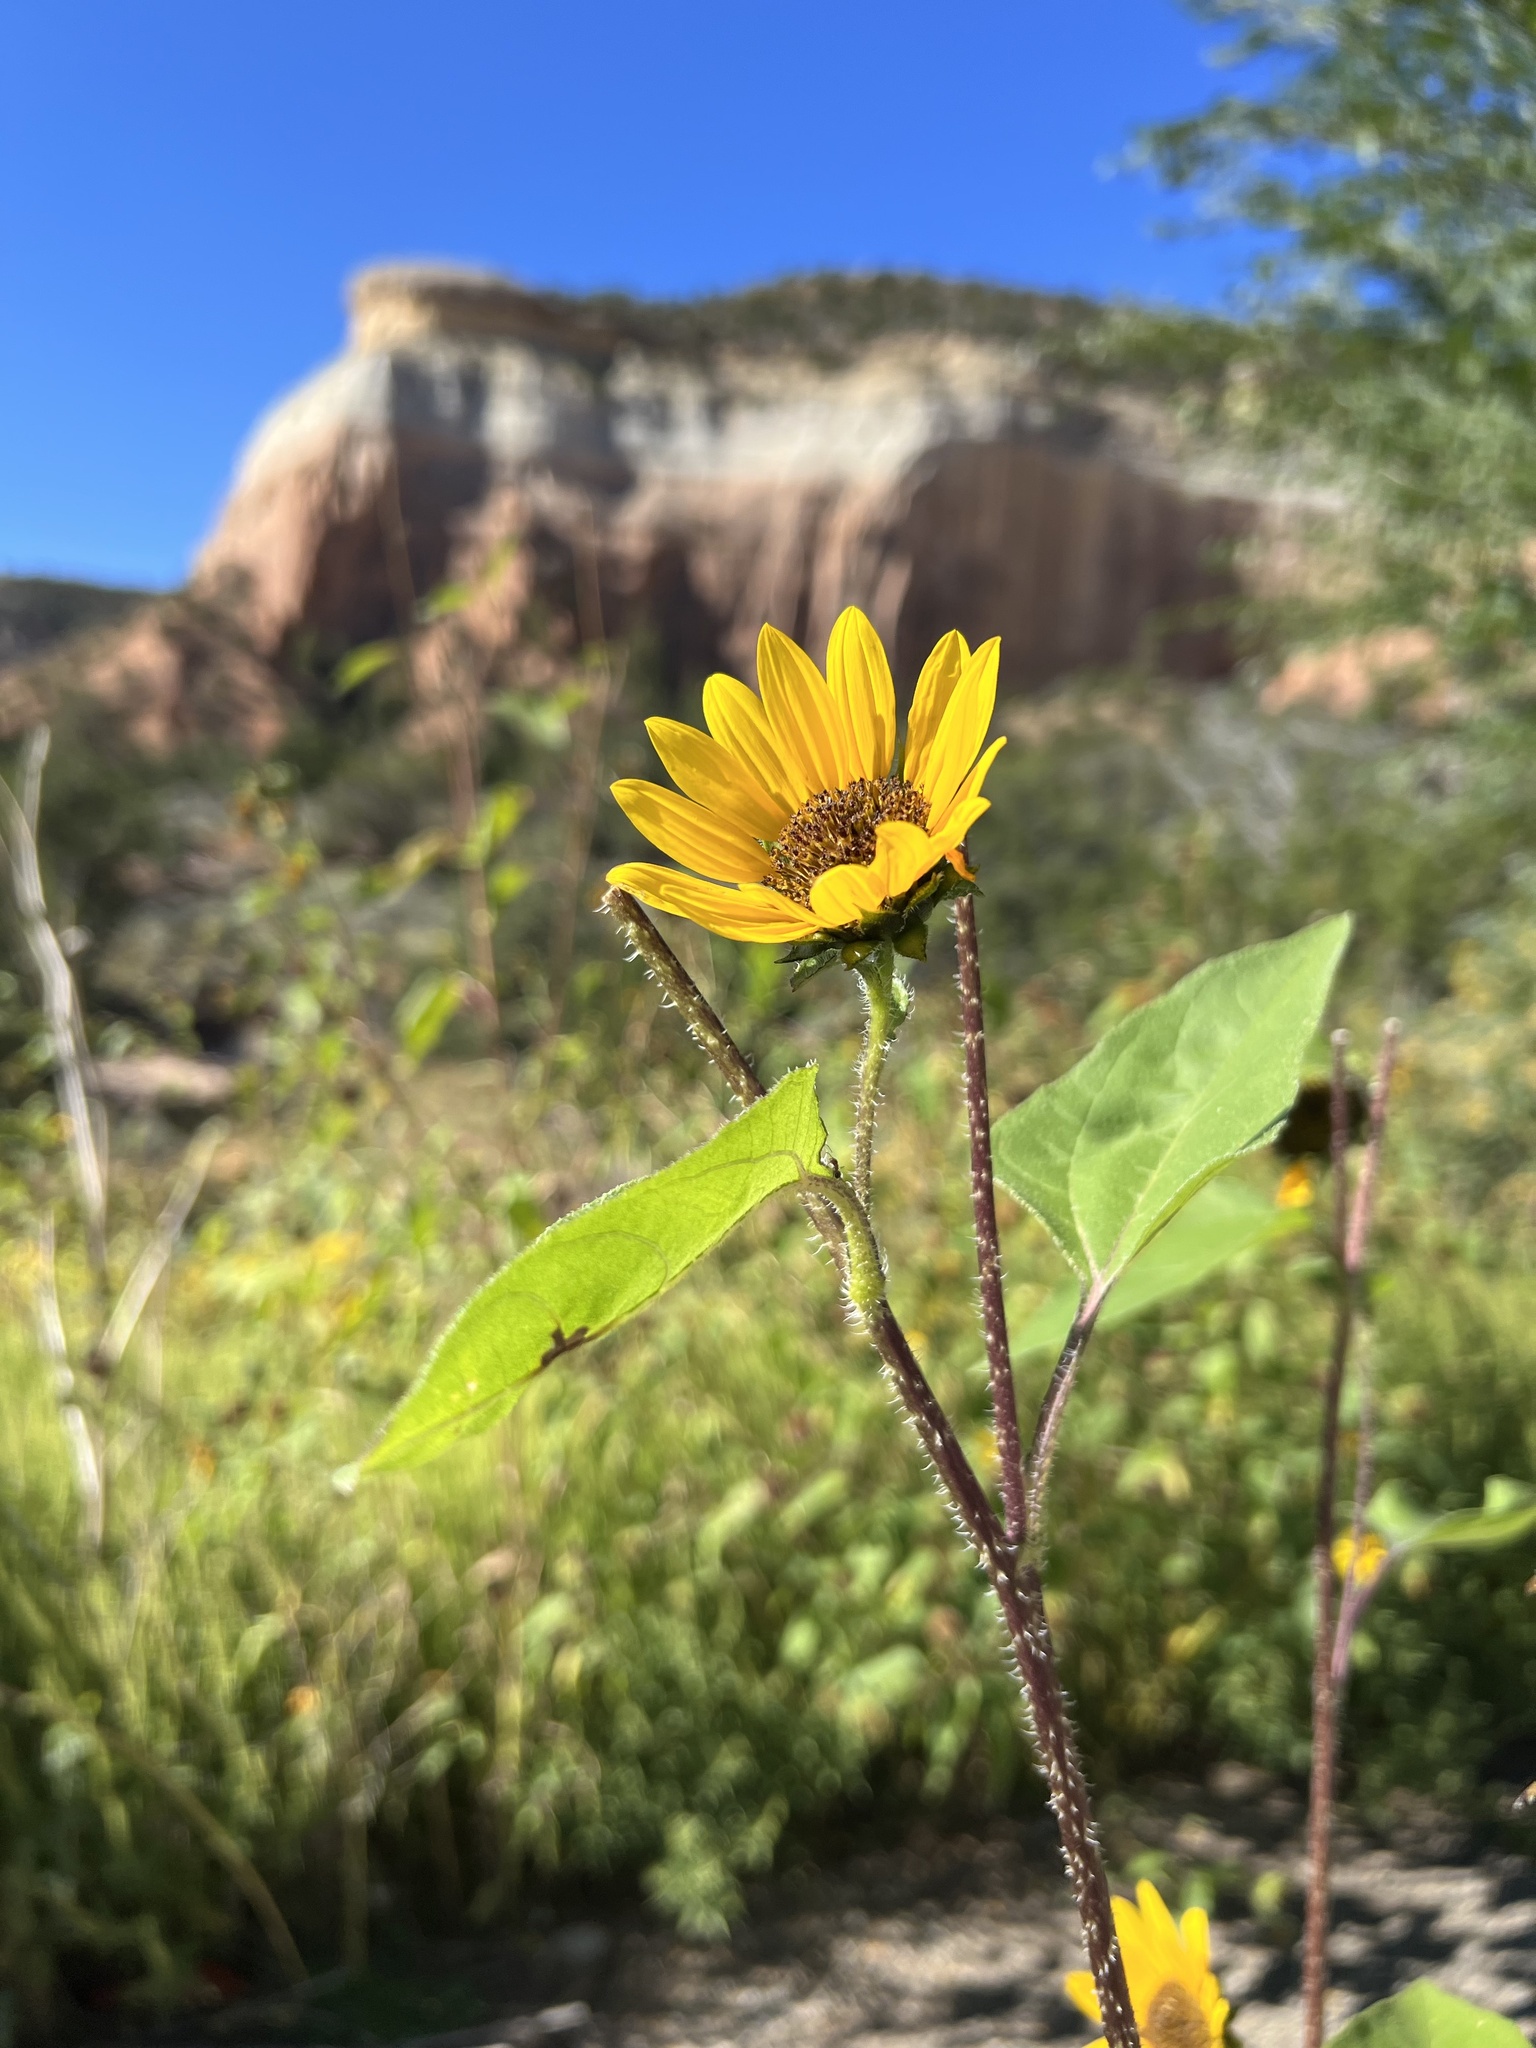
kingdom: Plantae
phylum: Tracheophyta
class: Magnoliopsida
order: Asterales
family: Asteraceae
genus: Helianthus
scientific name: Helianthus annuus
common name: Sunflower
